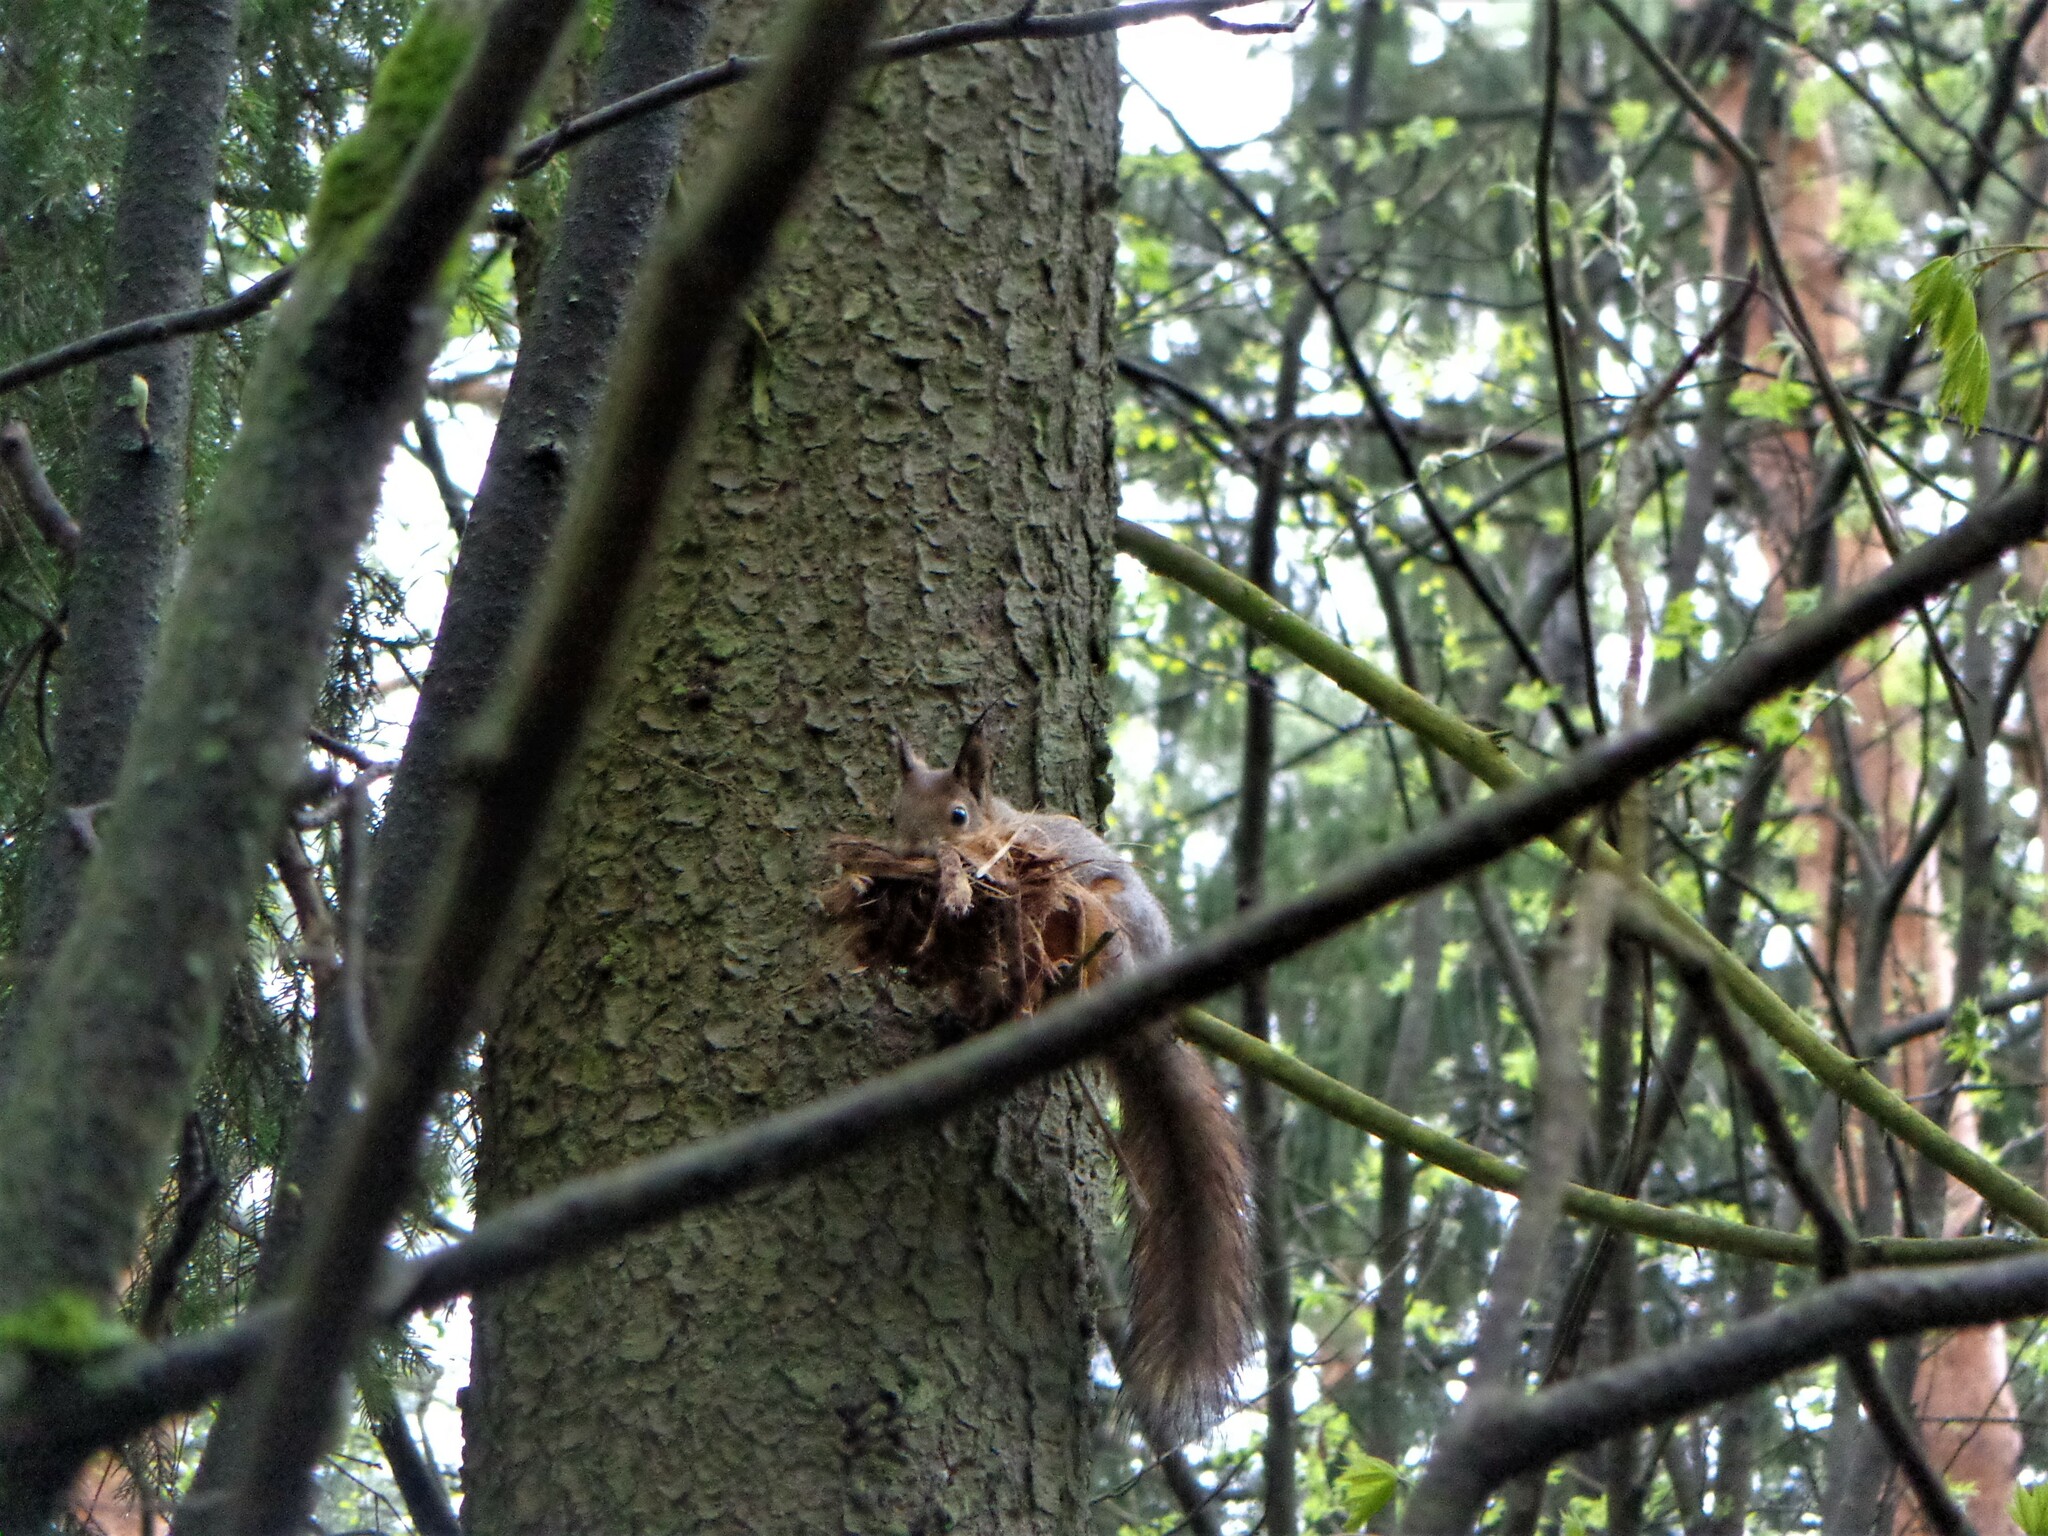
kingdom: Animalia
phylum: Chordata
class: Mammalia
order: Rodentia
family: Sciuridae
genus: Sciurus
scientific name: Sciurus vulgaris
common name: Eurasian red squirrel
